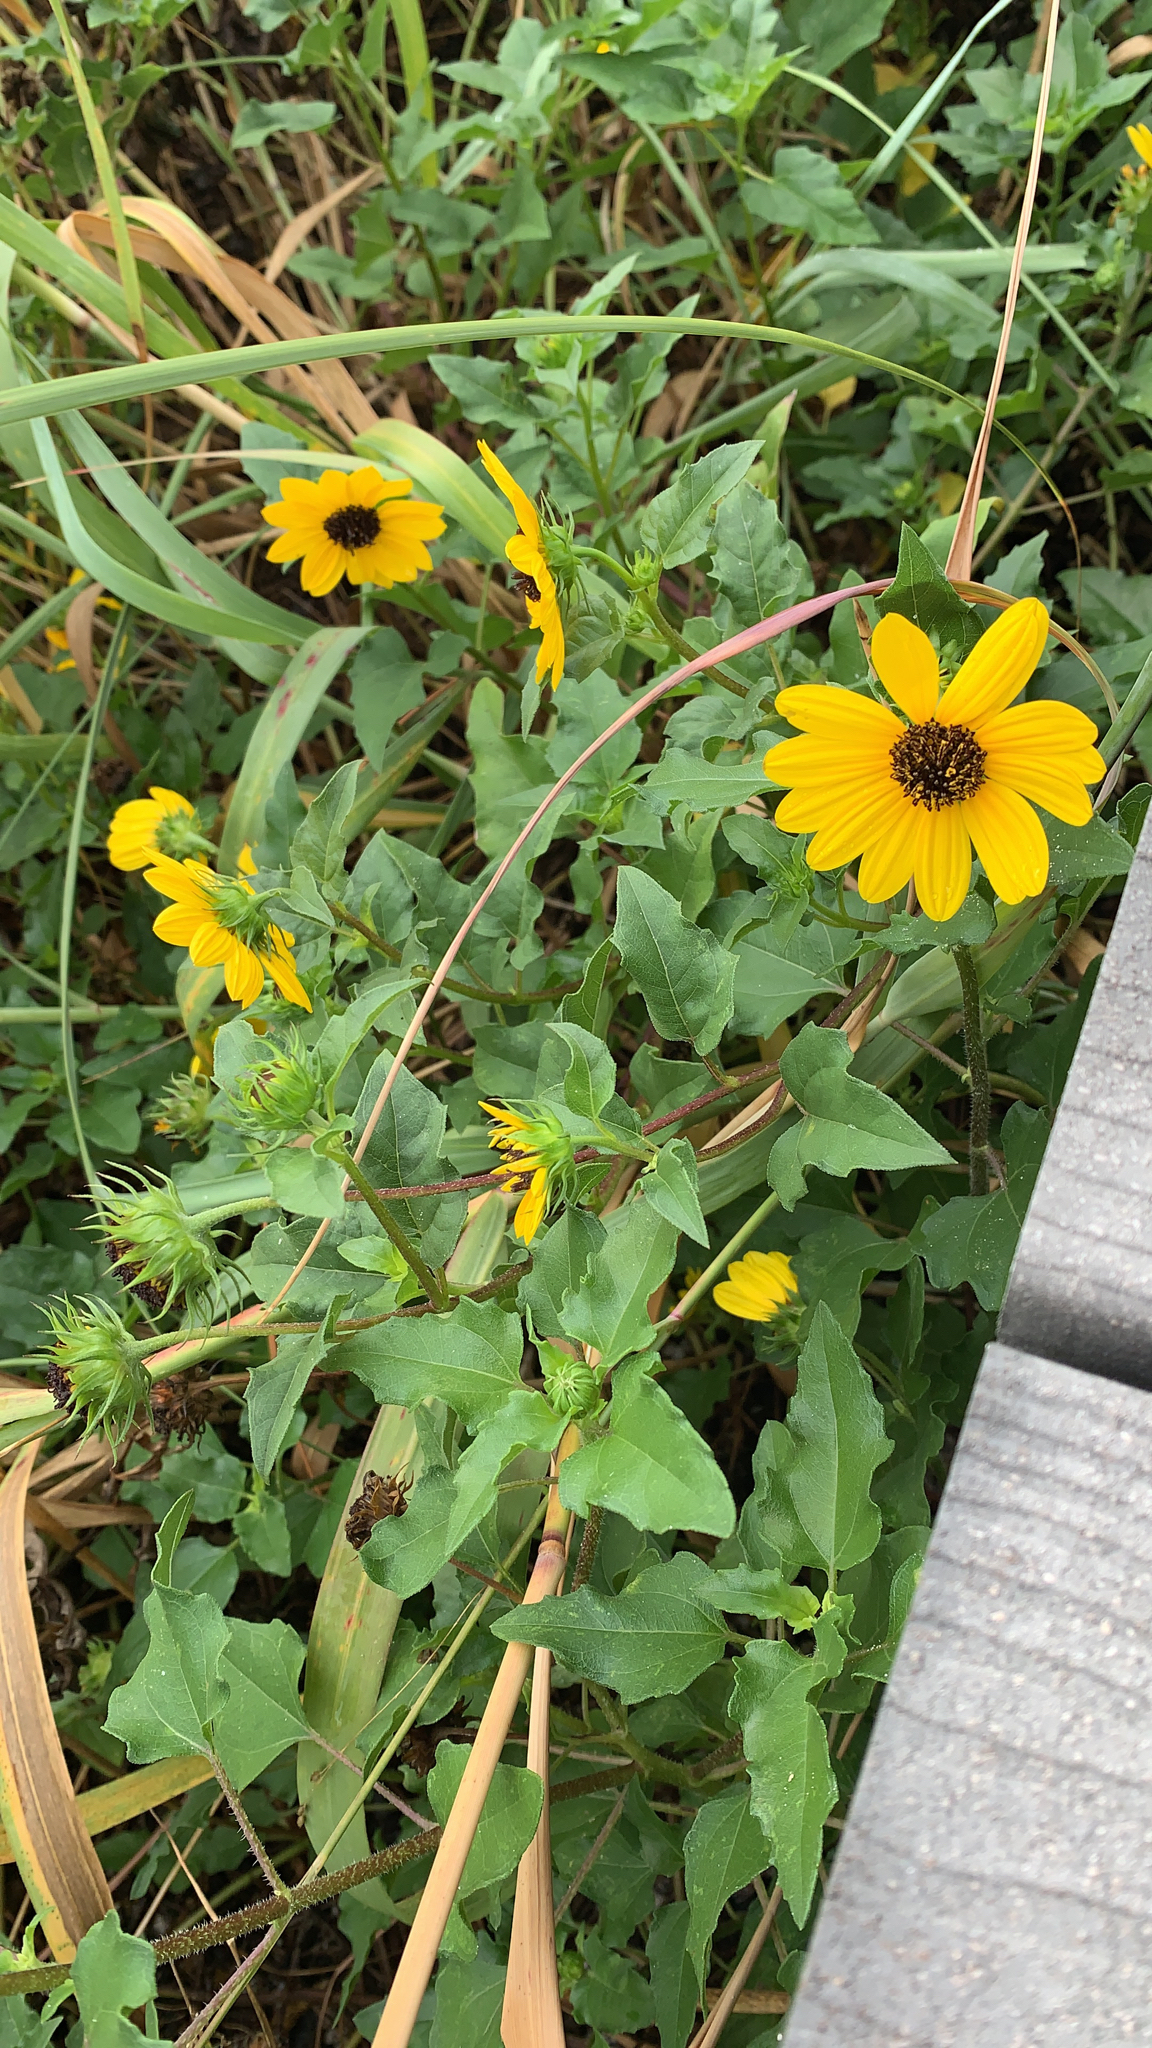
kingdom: Plantae
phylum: Tracheophyta
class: Magnoliopsida
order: Asterales
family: Asteraceae
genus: Helianthus
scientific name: Helianthus debilis
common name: Weak sunflower
